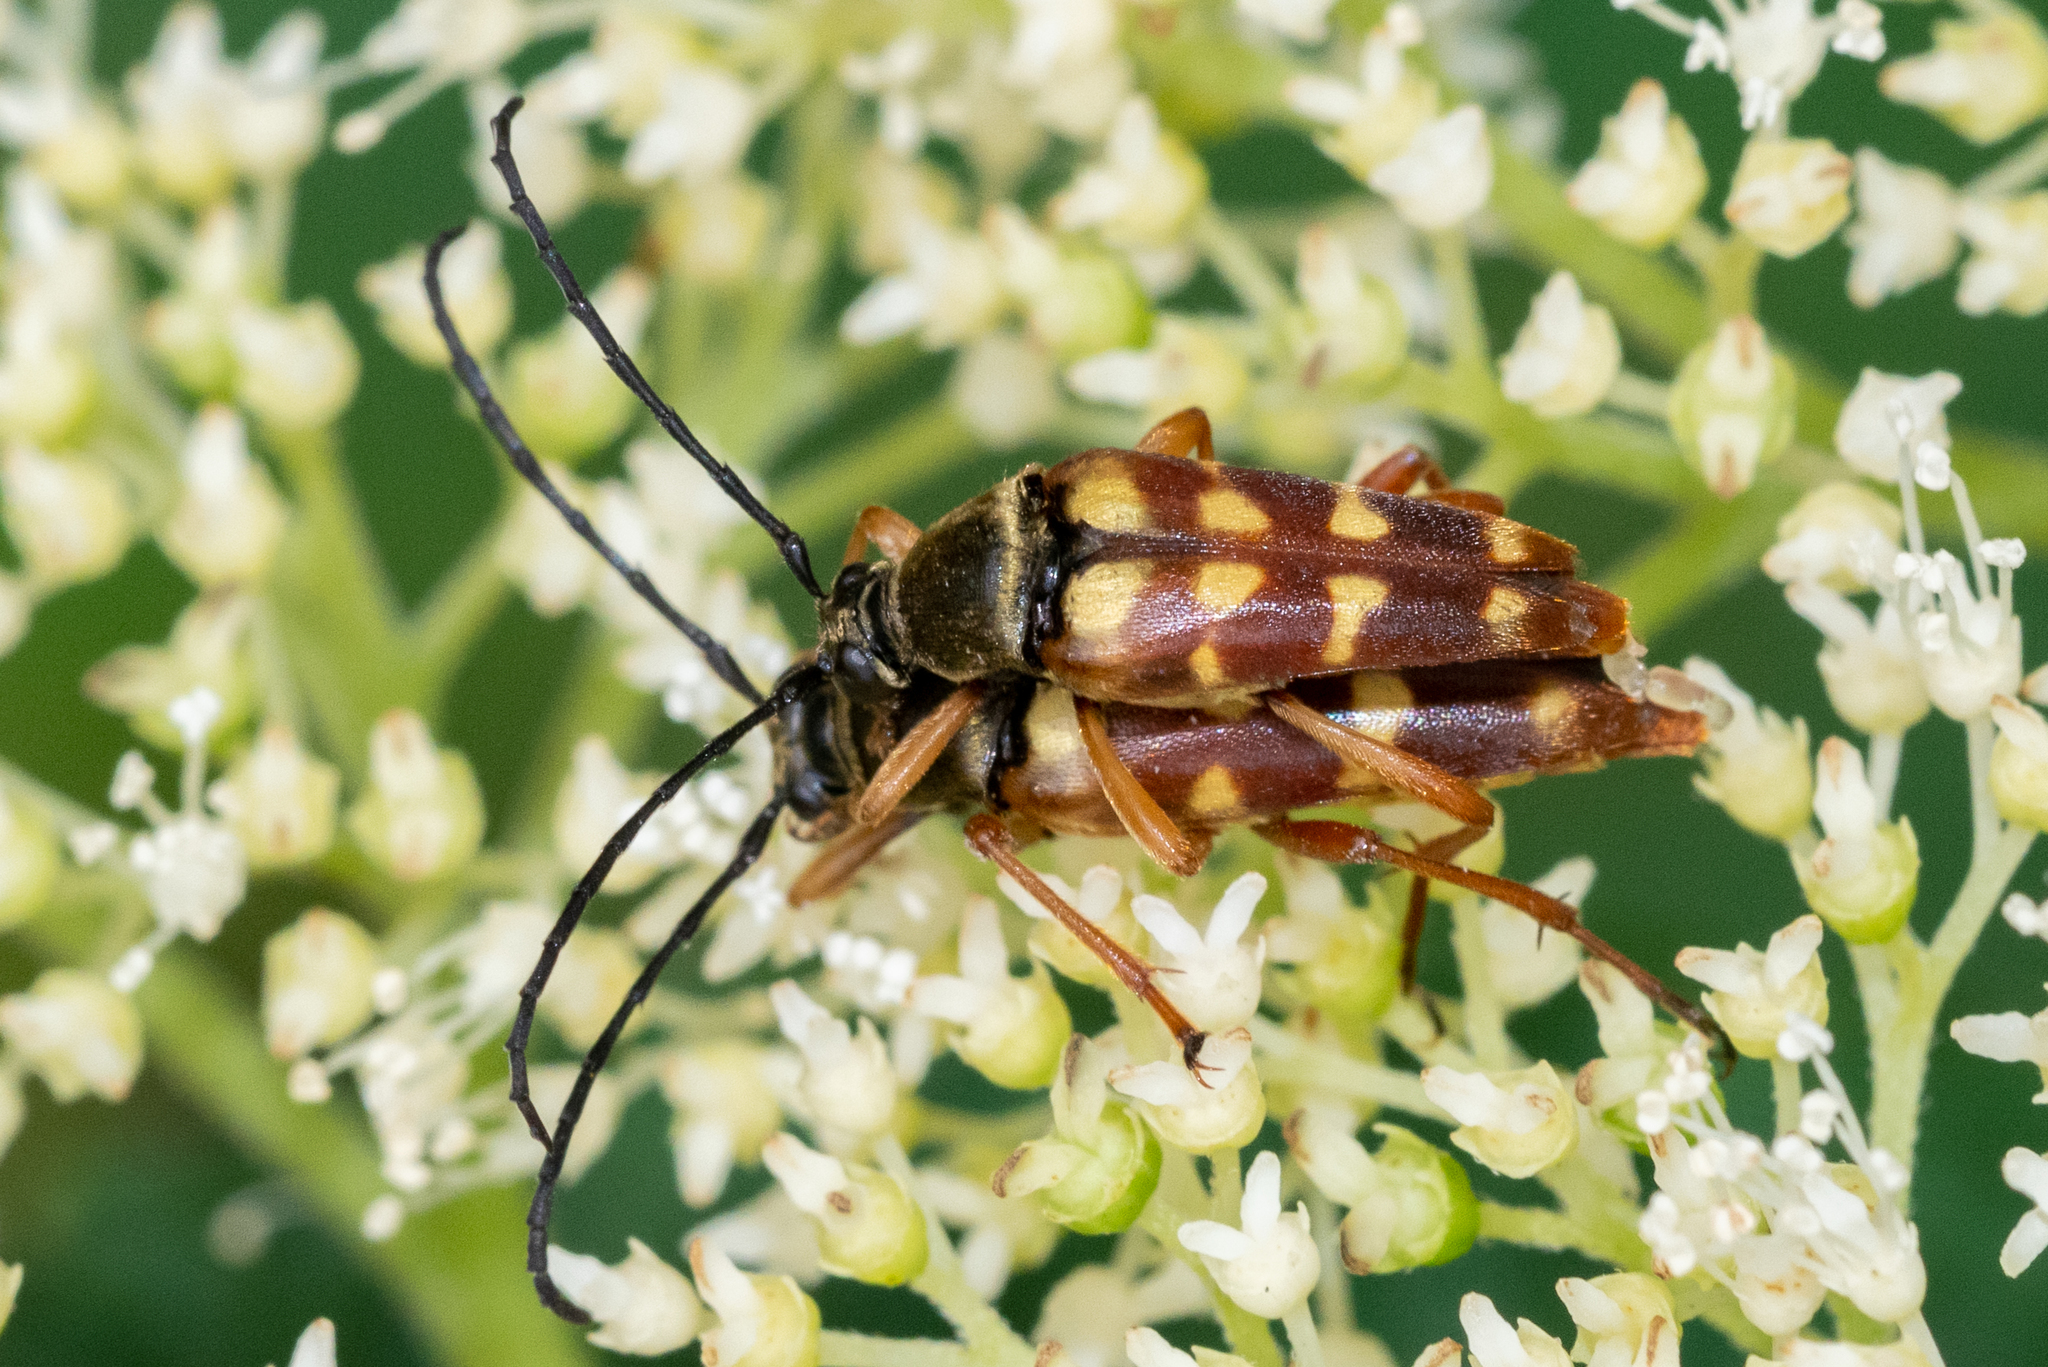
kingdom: Animalia
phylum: Arthropoda
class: Insecta
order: Coleoptera
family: Cerambycidae
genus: Typocerus
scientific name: Typocerus velutinus
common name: Banded longhorn beetle
